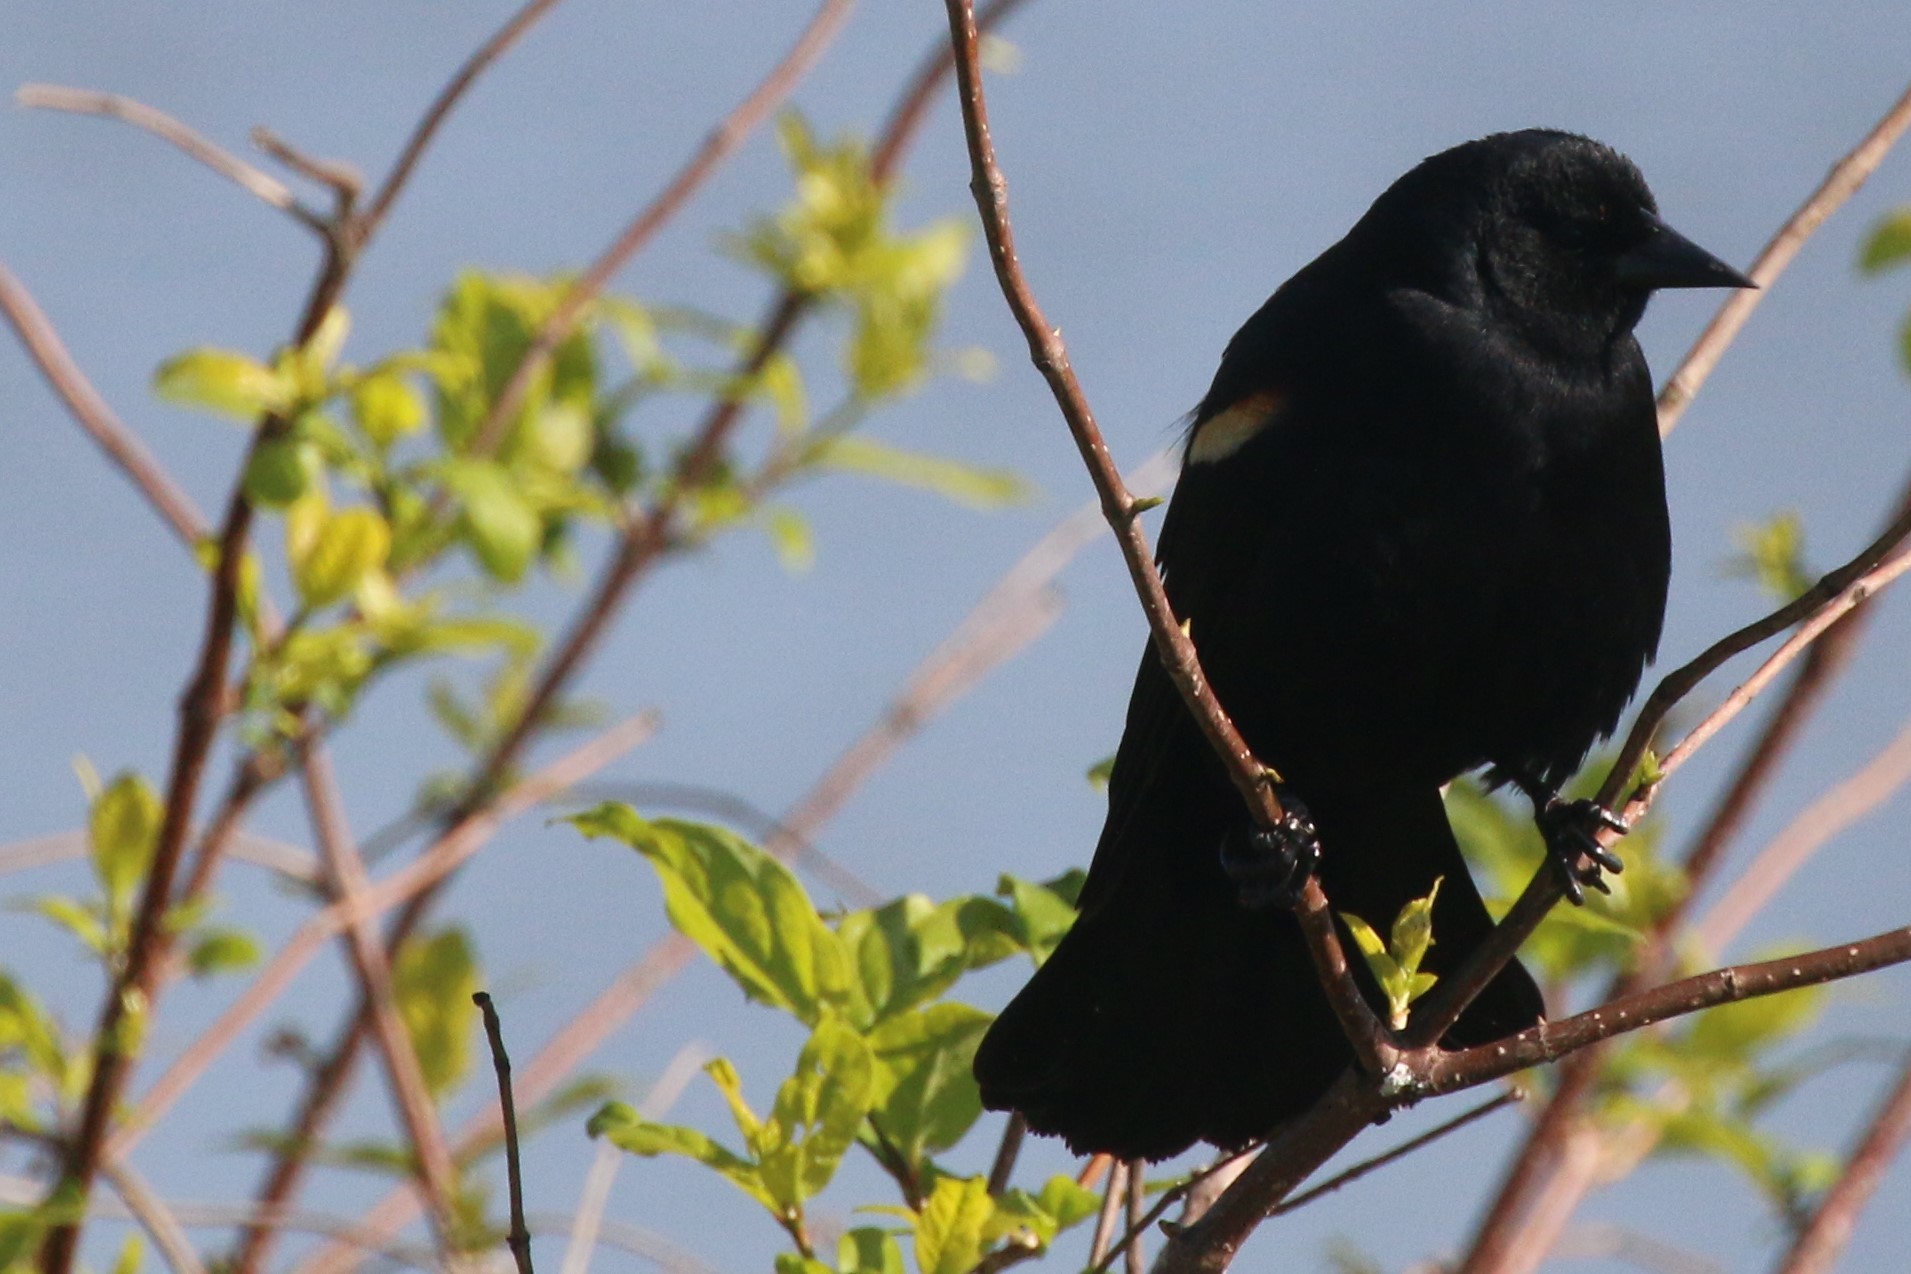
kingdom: Animalia
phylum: Chordata
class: Aves
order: Passeriformes
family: Icteridae
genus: Agelaius
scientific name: Agelaius phoeniceus
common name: Red-winged blackbird
